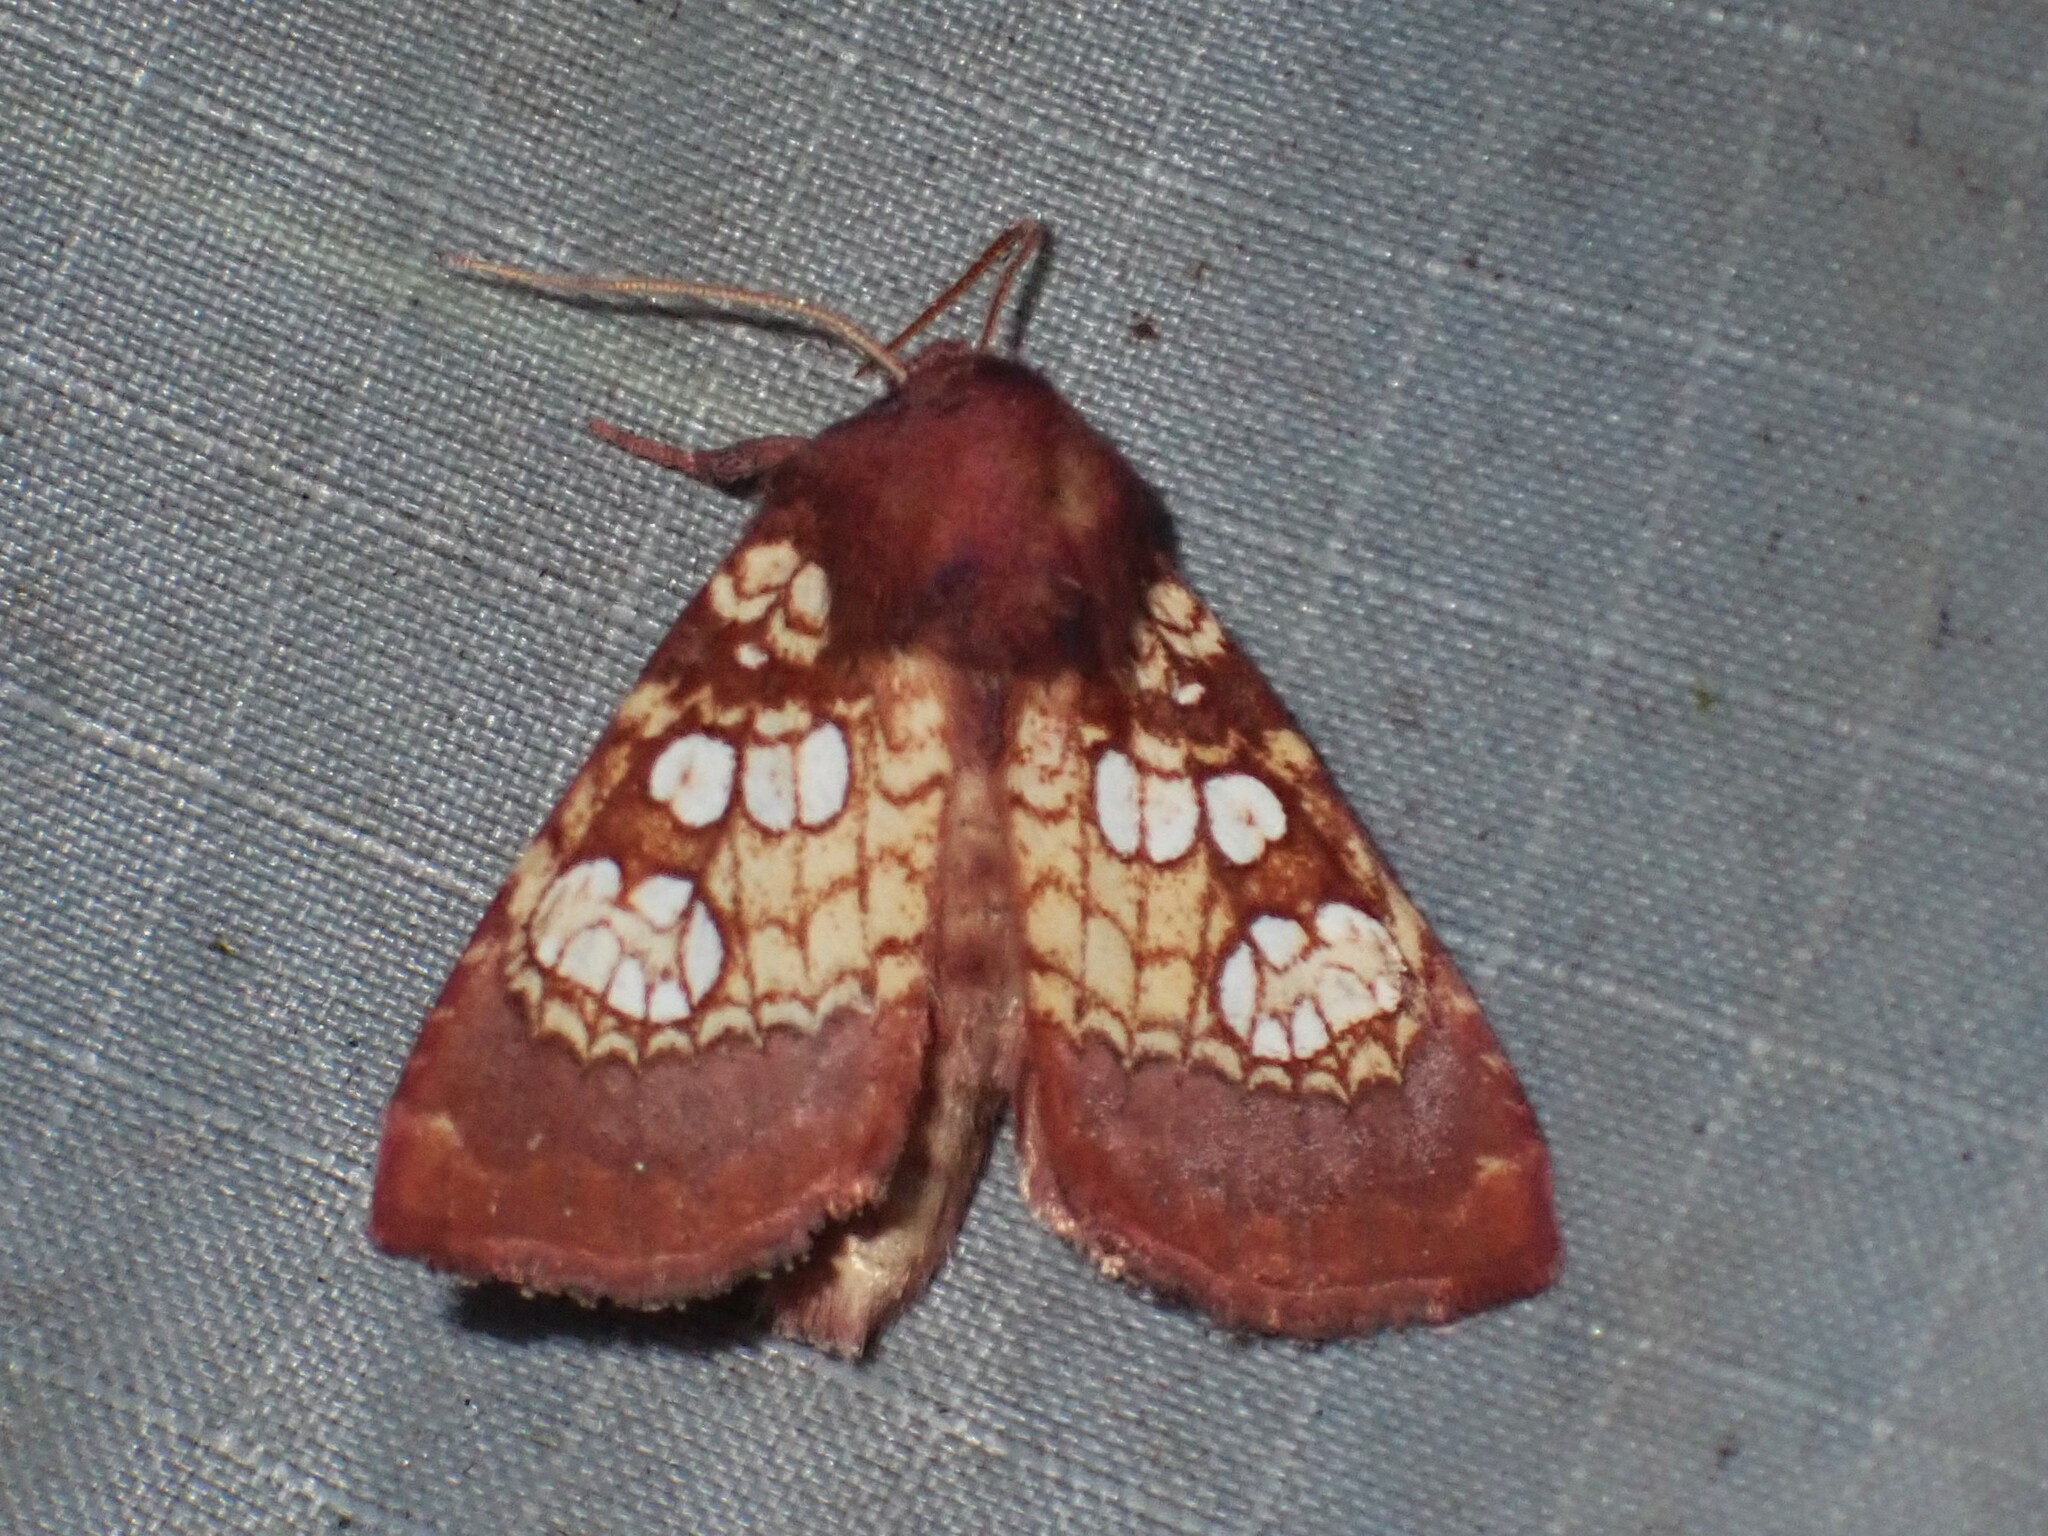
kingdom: Animalia
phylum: Arthropoda
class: Insecta
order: Lepidoptera
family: Noctuidae
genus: Papaipema
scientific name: Papaipema appassionata
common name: Pitcher plant borer moth
